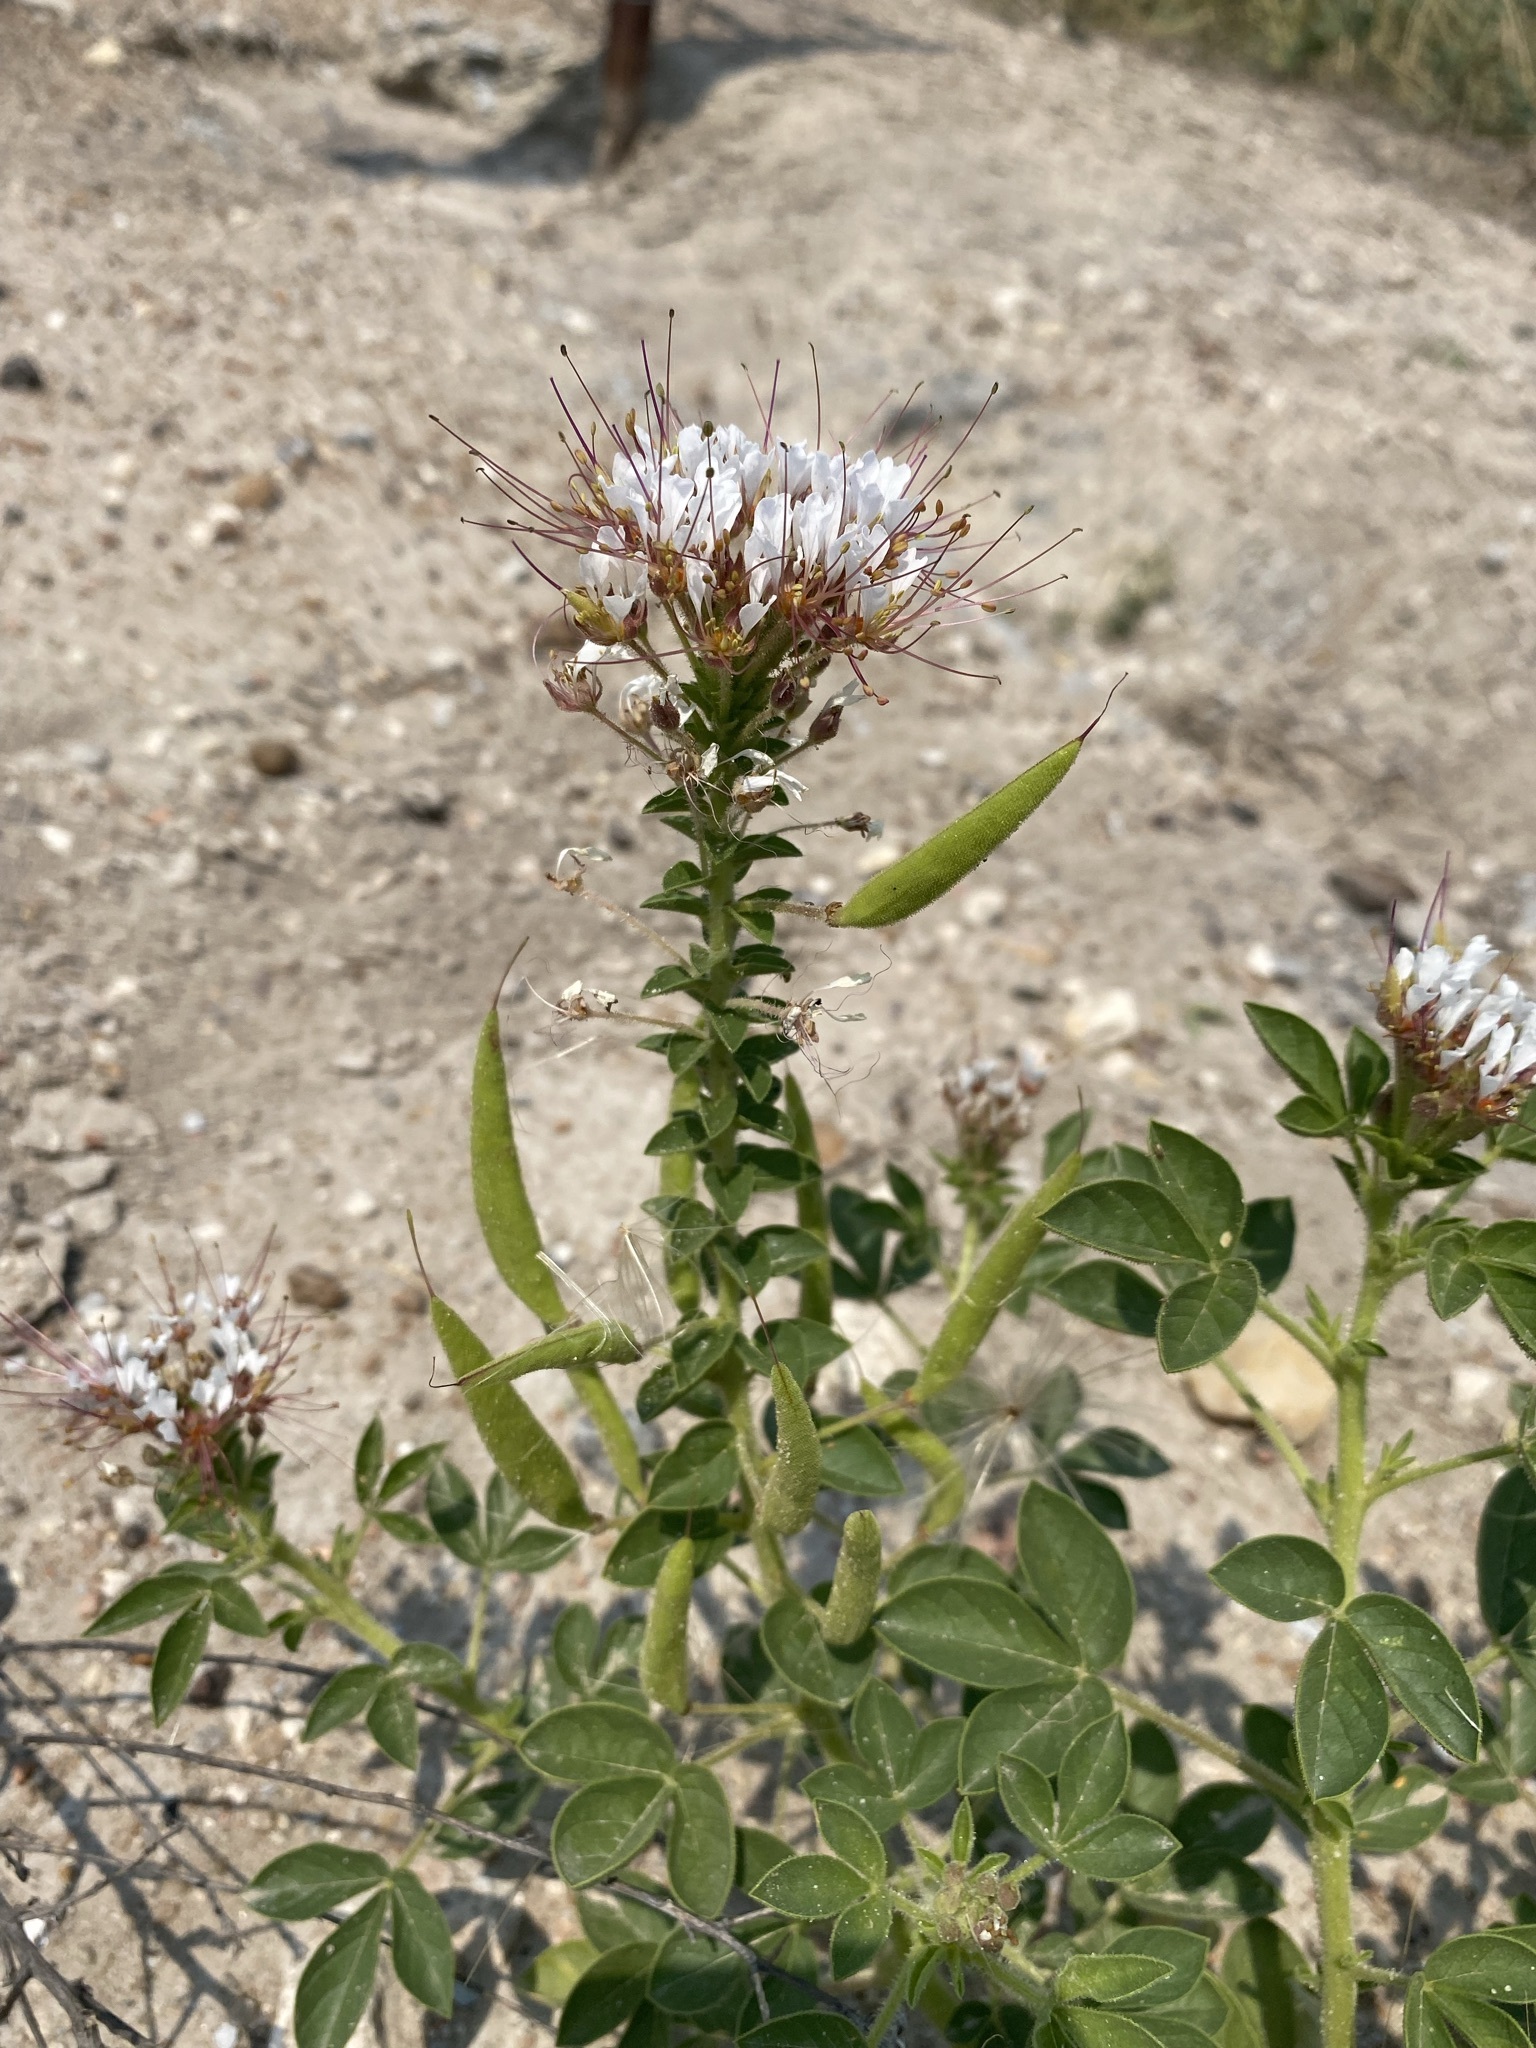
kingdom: Plantae
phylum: Tracheophyta
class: Magnoliopsida
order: Brassicales
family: Cleomaceae
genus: Polanisia
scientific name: Polanisia dodecandra
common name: Clammyweed
